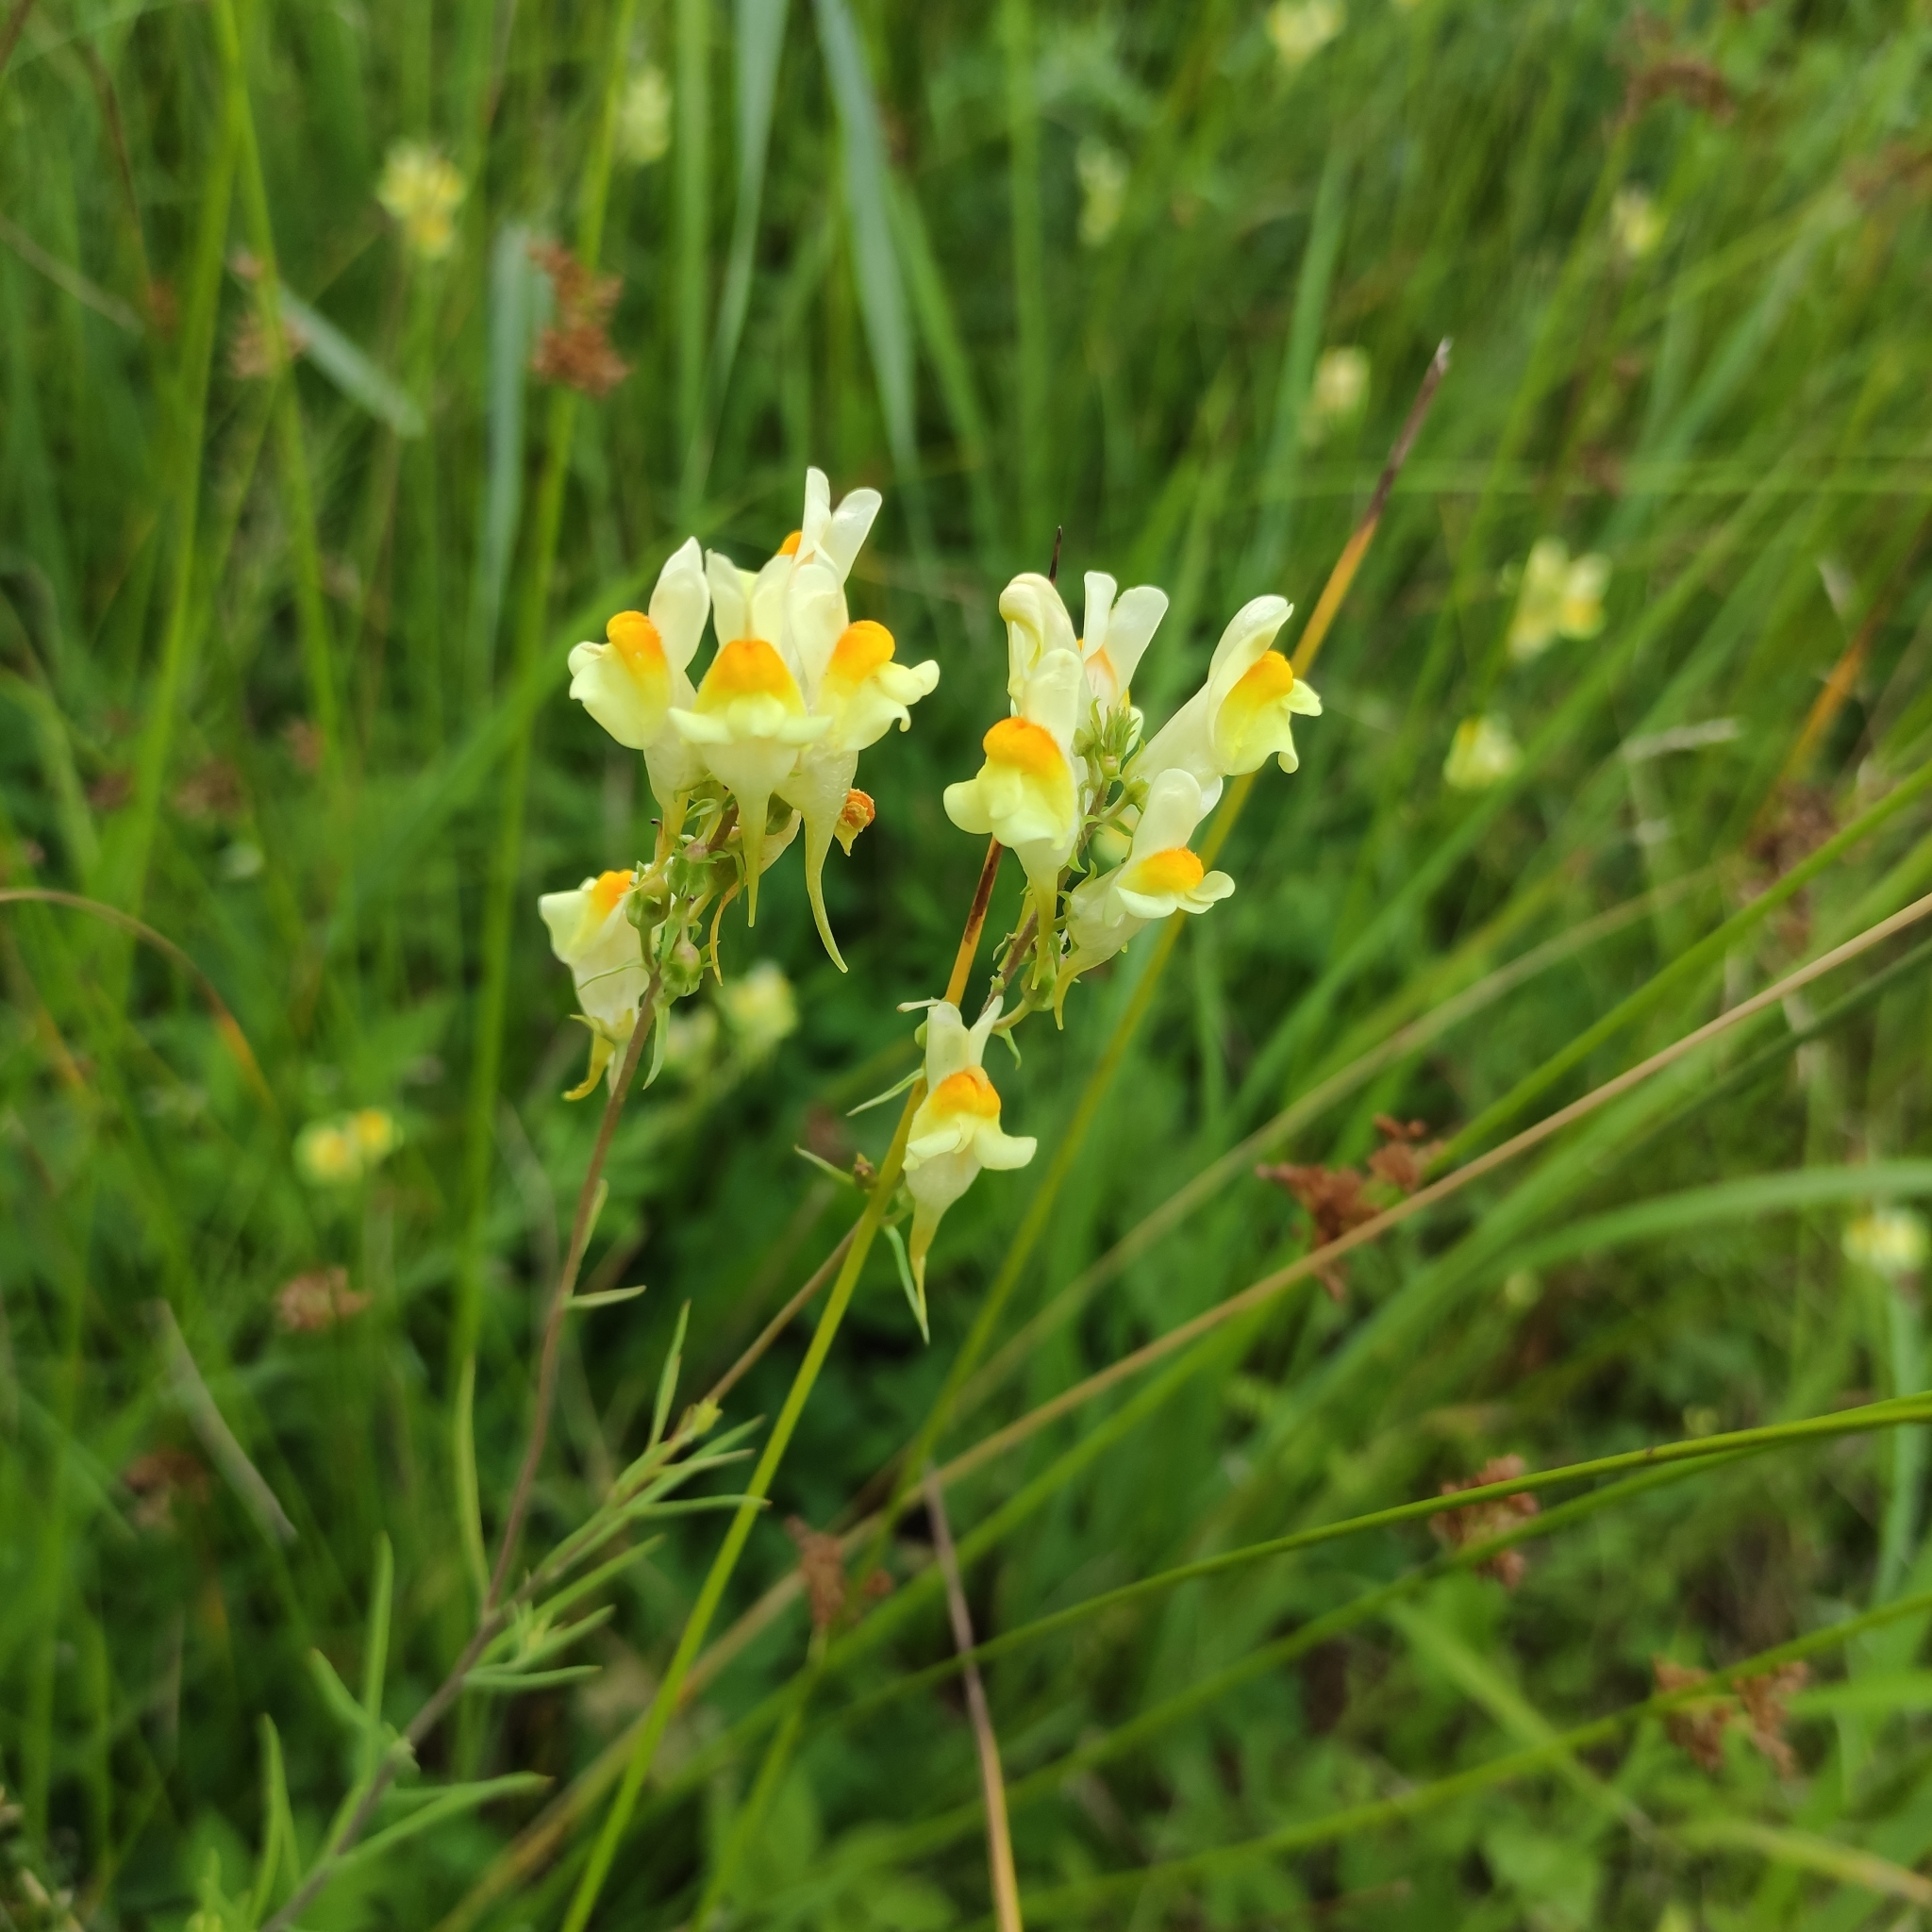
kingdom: Plantae
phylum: Tracheophyta
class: Magnoliopsida
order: Lamiales
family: Plantaginaceae
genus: Linaria
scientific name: Linaria vulgaris
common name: Butter and eggs
